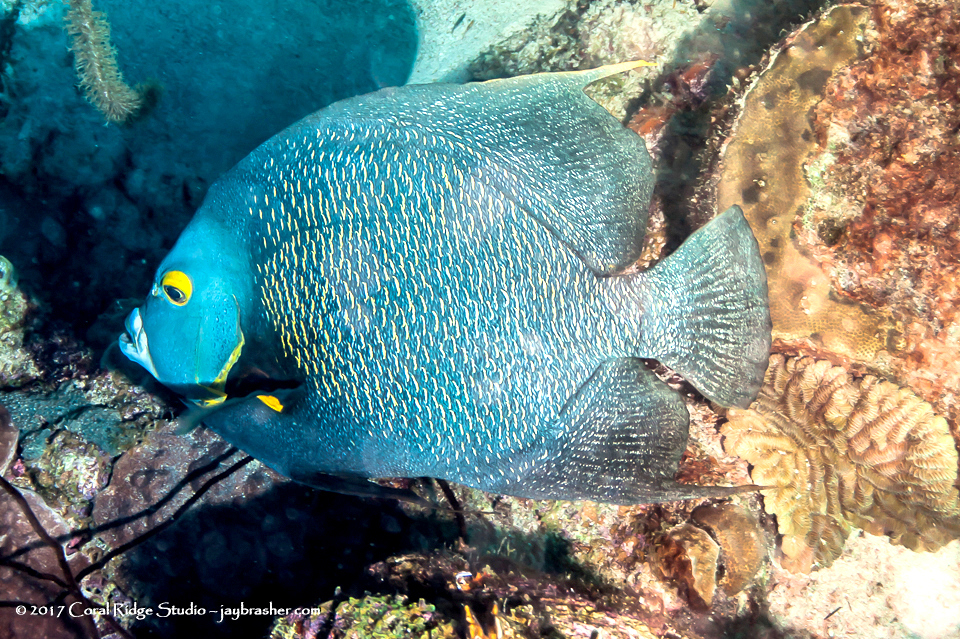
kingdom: Animalia
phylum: Chordata
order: Perciformes
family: Pomacanthidae
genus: Pomacanthus
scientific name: Pomacanthus paru
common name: French angelfish
